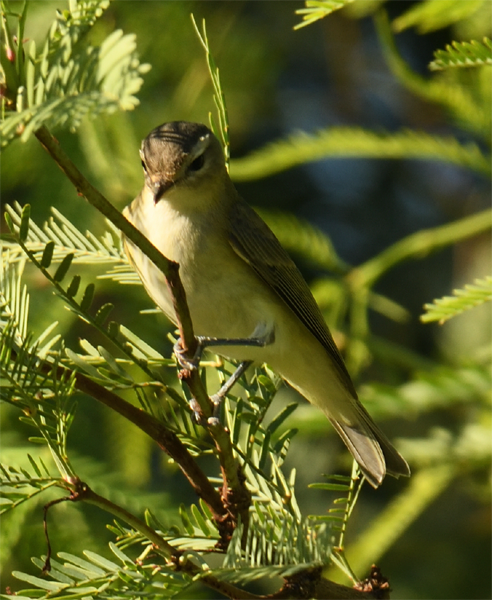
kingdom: Animalia
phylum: Chordata
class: Aves
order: Passeriformes
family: Vireonidae
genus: Vireo
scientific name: Vireo gilvus
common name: Warbling vireo
